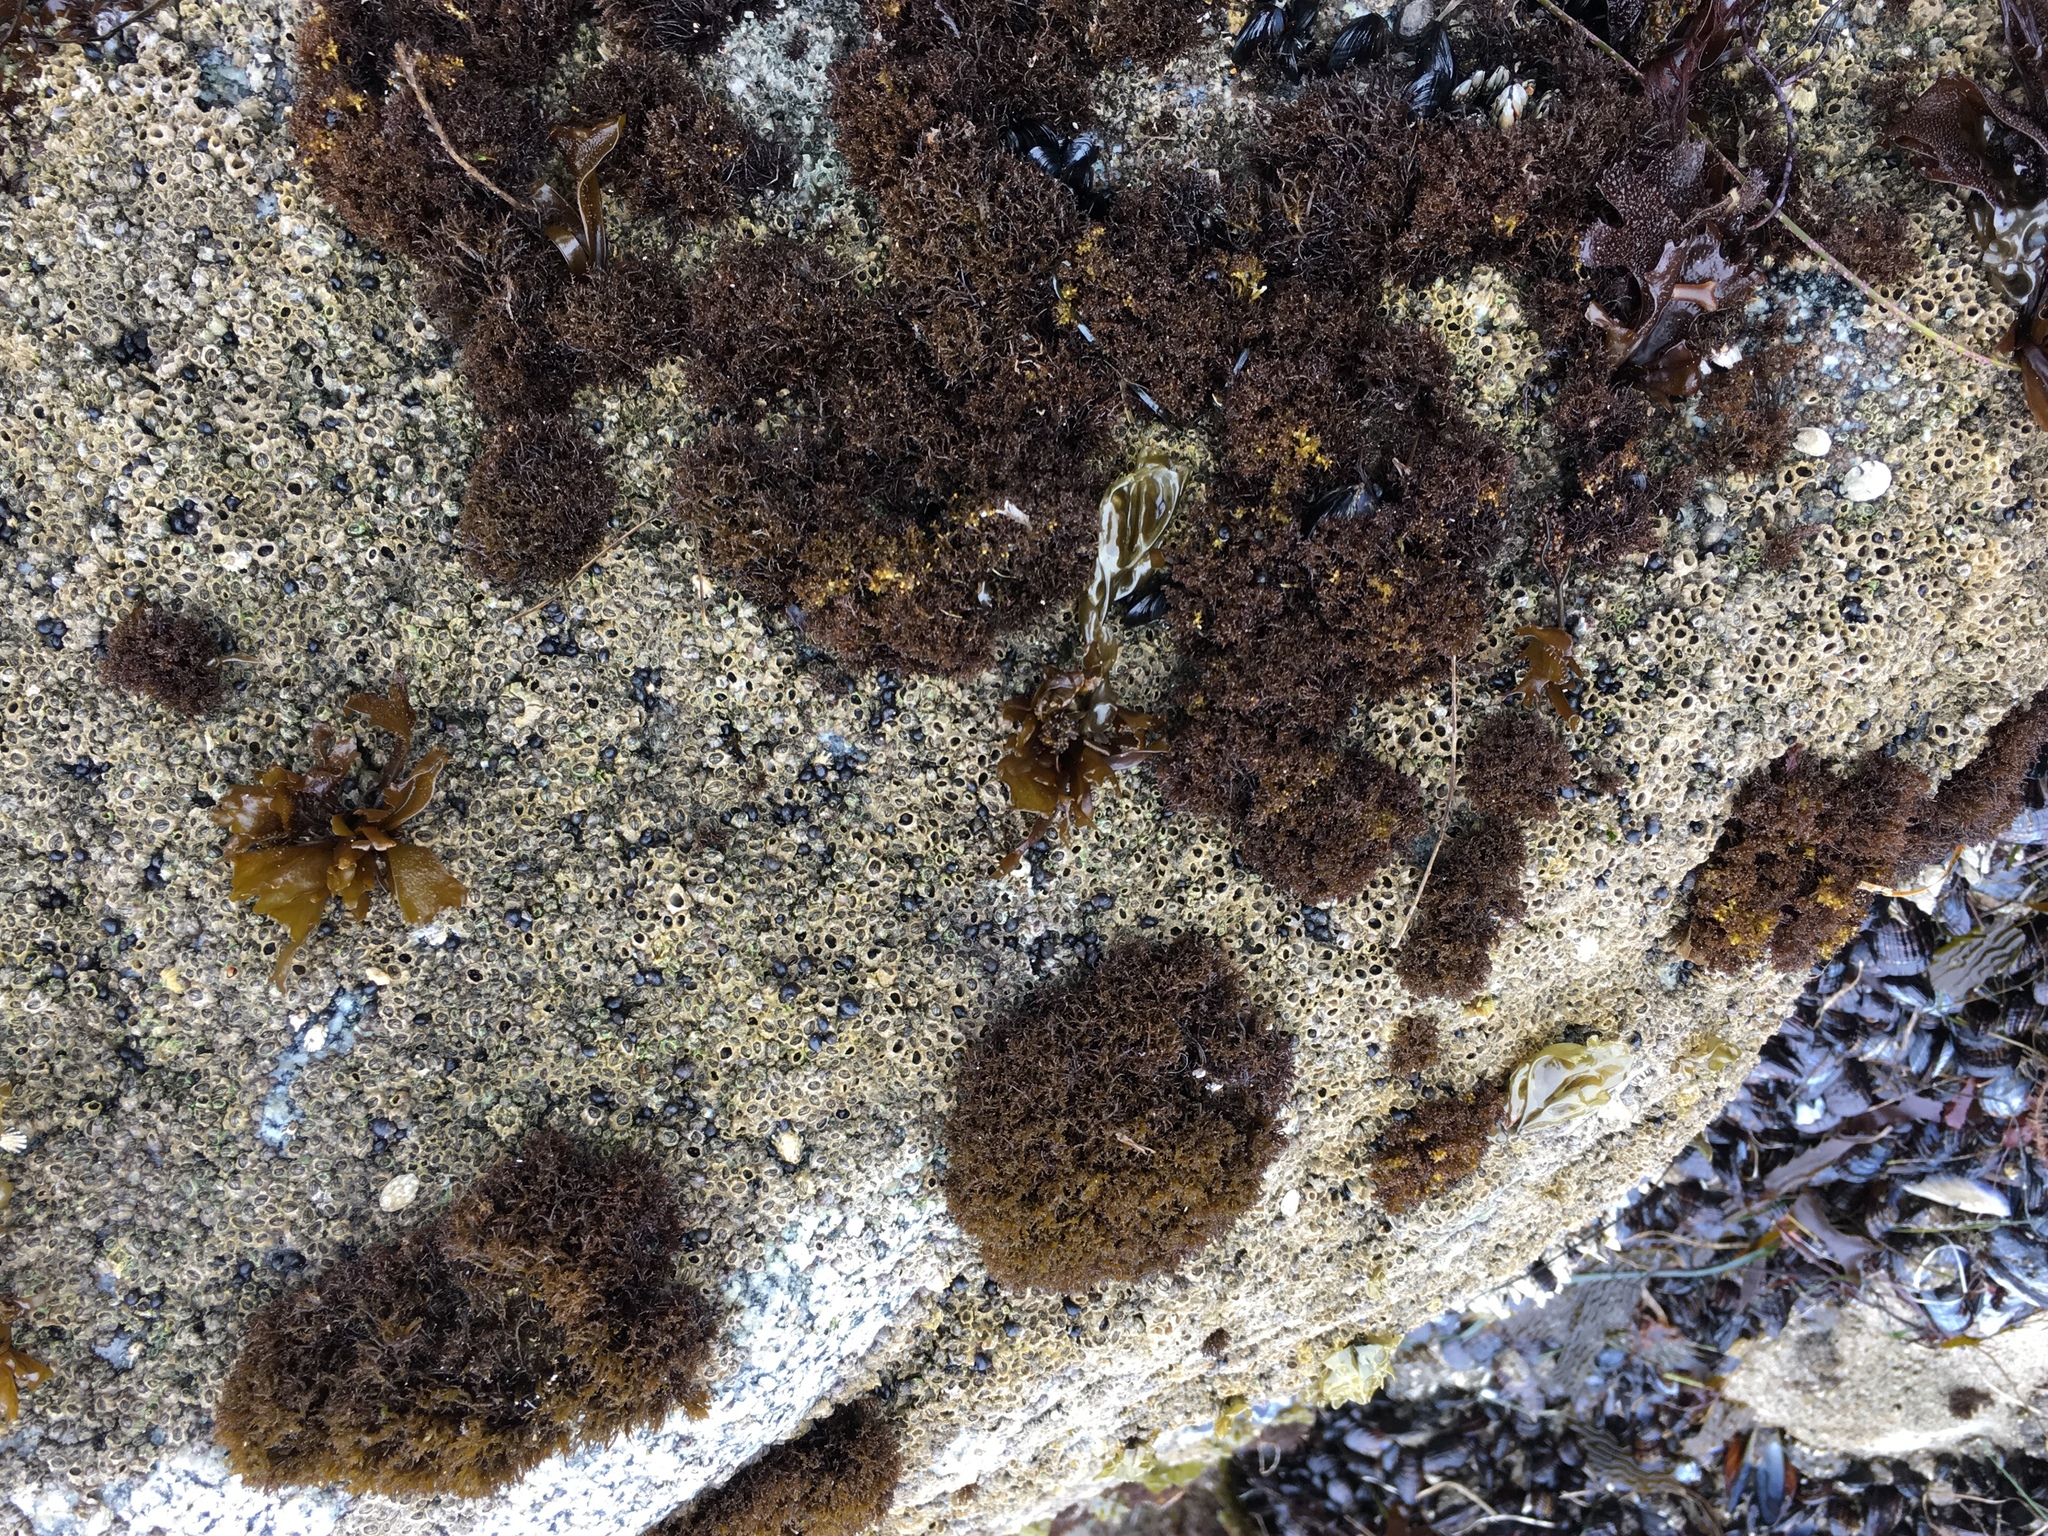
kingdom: Plantae
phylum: Rhodophyta
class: Florideophyceae
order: Gigartinales
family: Endocladiaceae
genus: Endocladia
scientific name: Endocladia muricata
